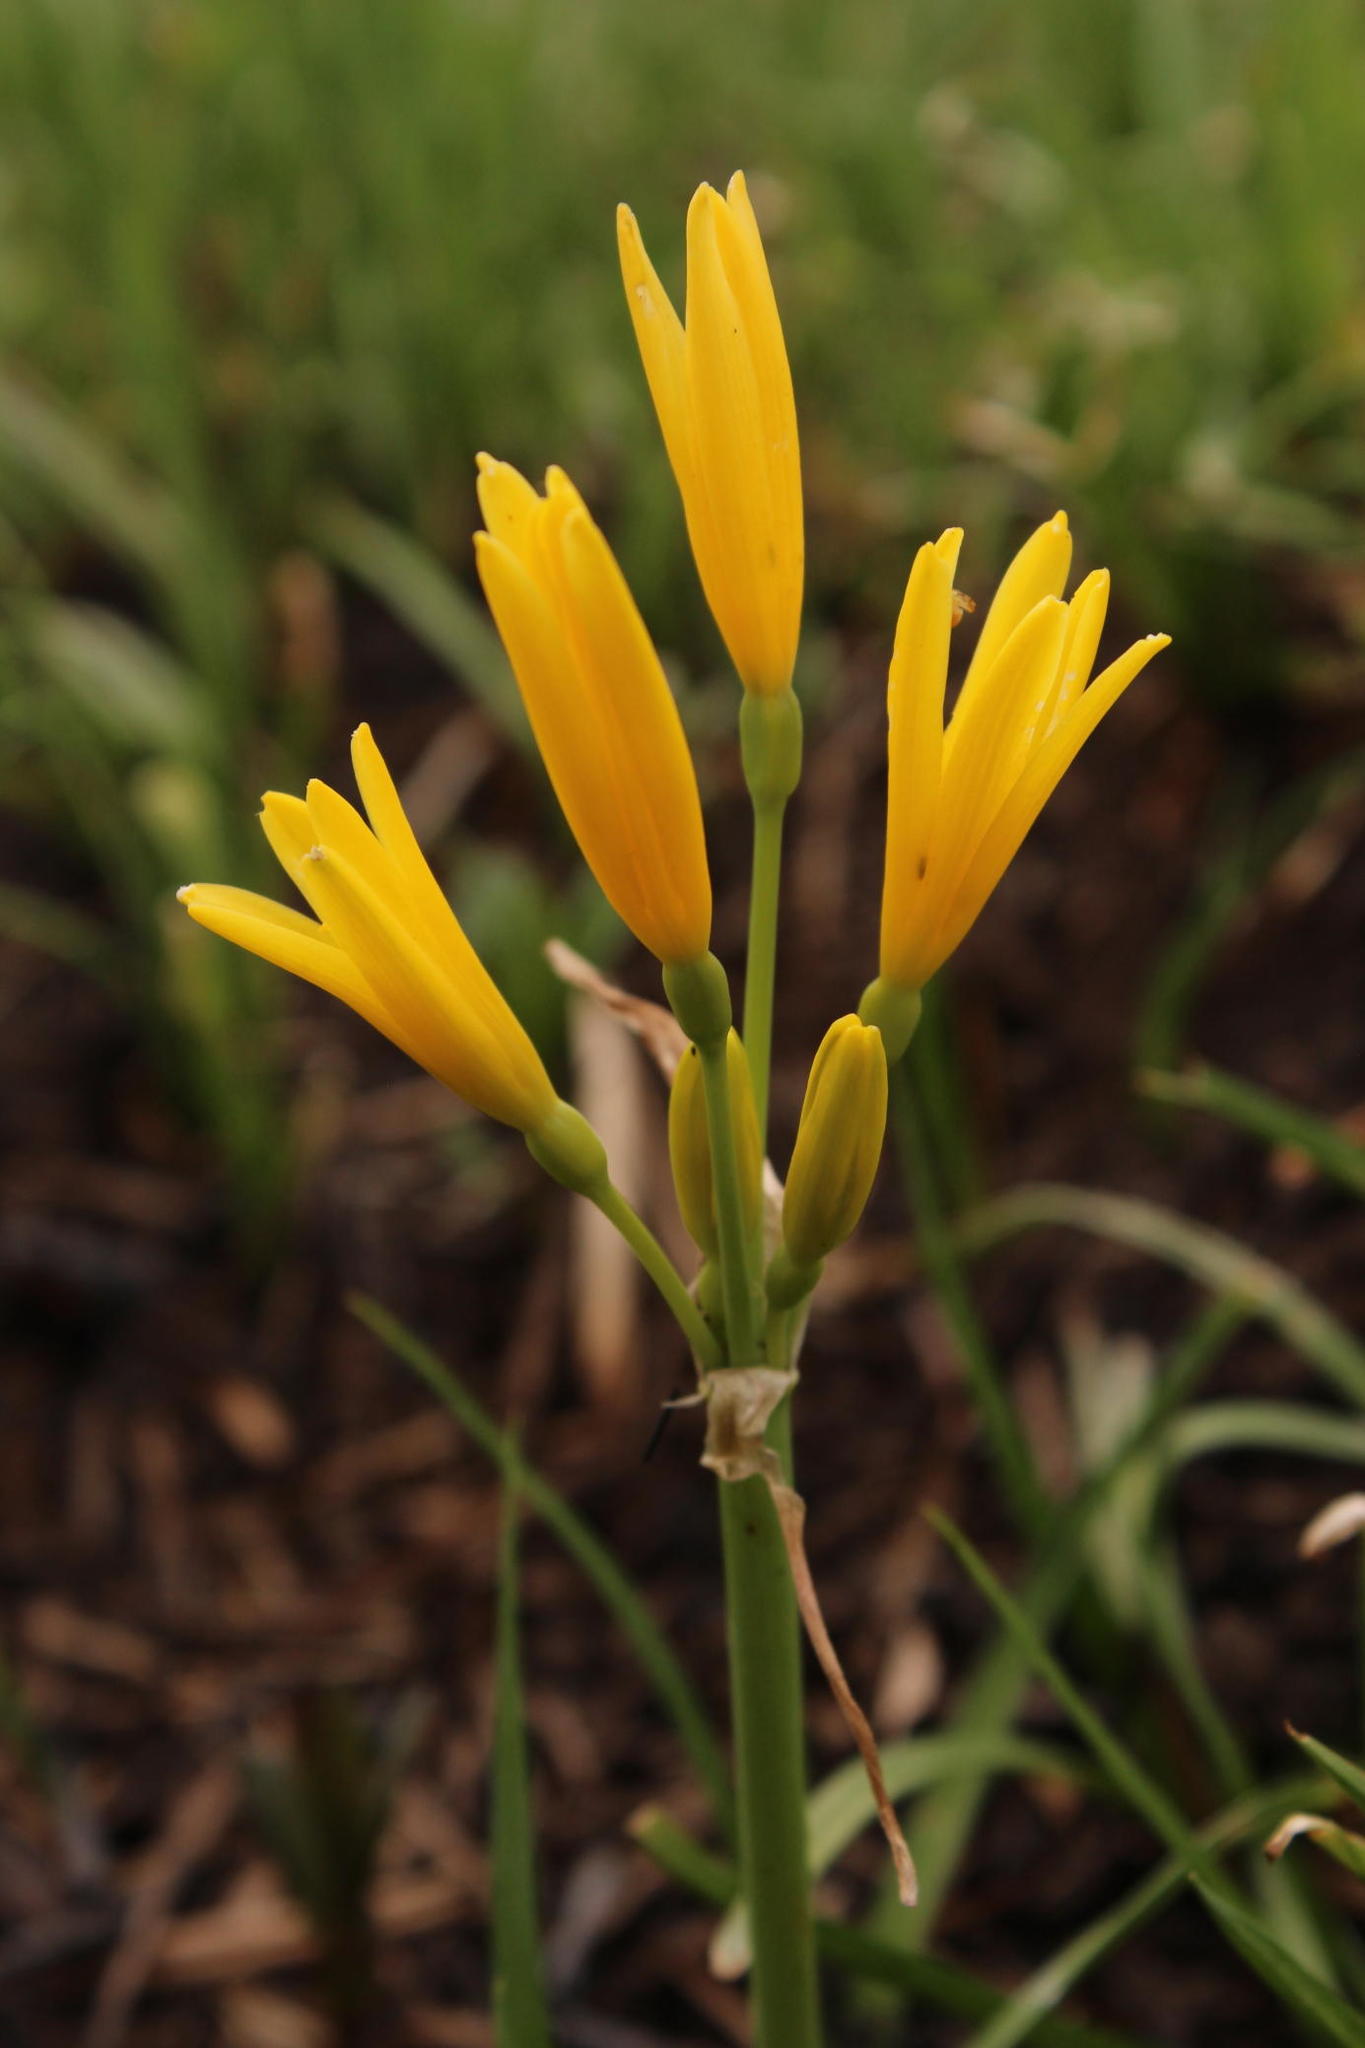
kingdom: Plantae
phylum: Tracheophyta
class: Liliopsida
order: Asparagales
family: Amaryllidaceae
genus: Cyrtanthus
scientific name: Cyrtanthus breviflorus
